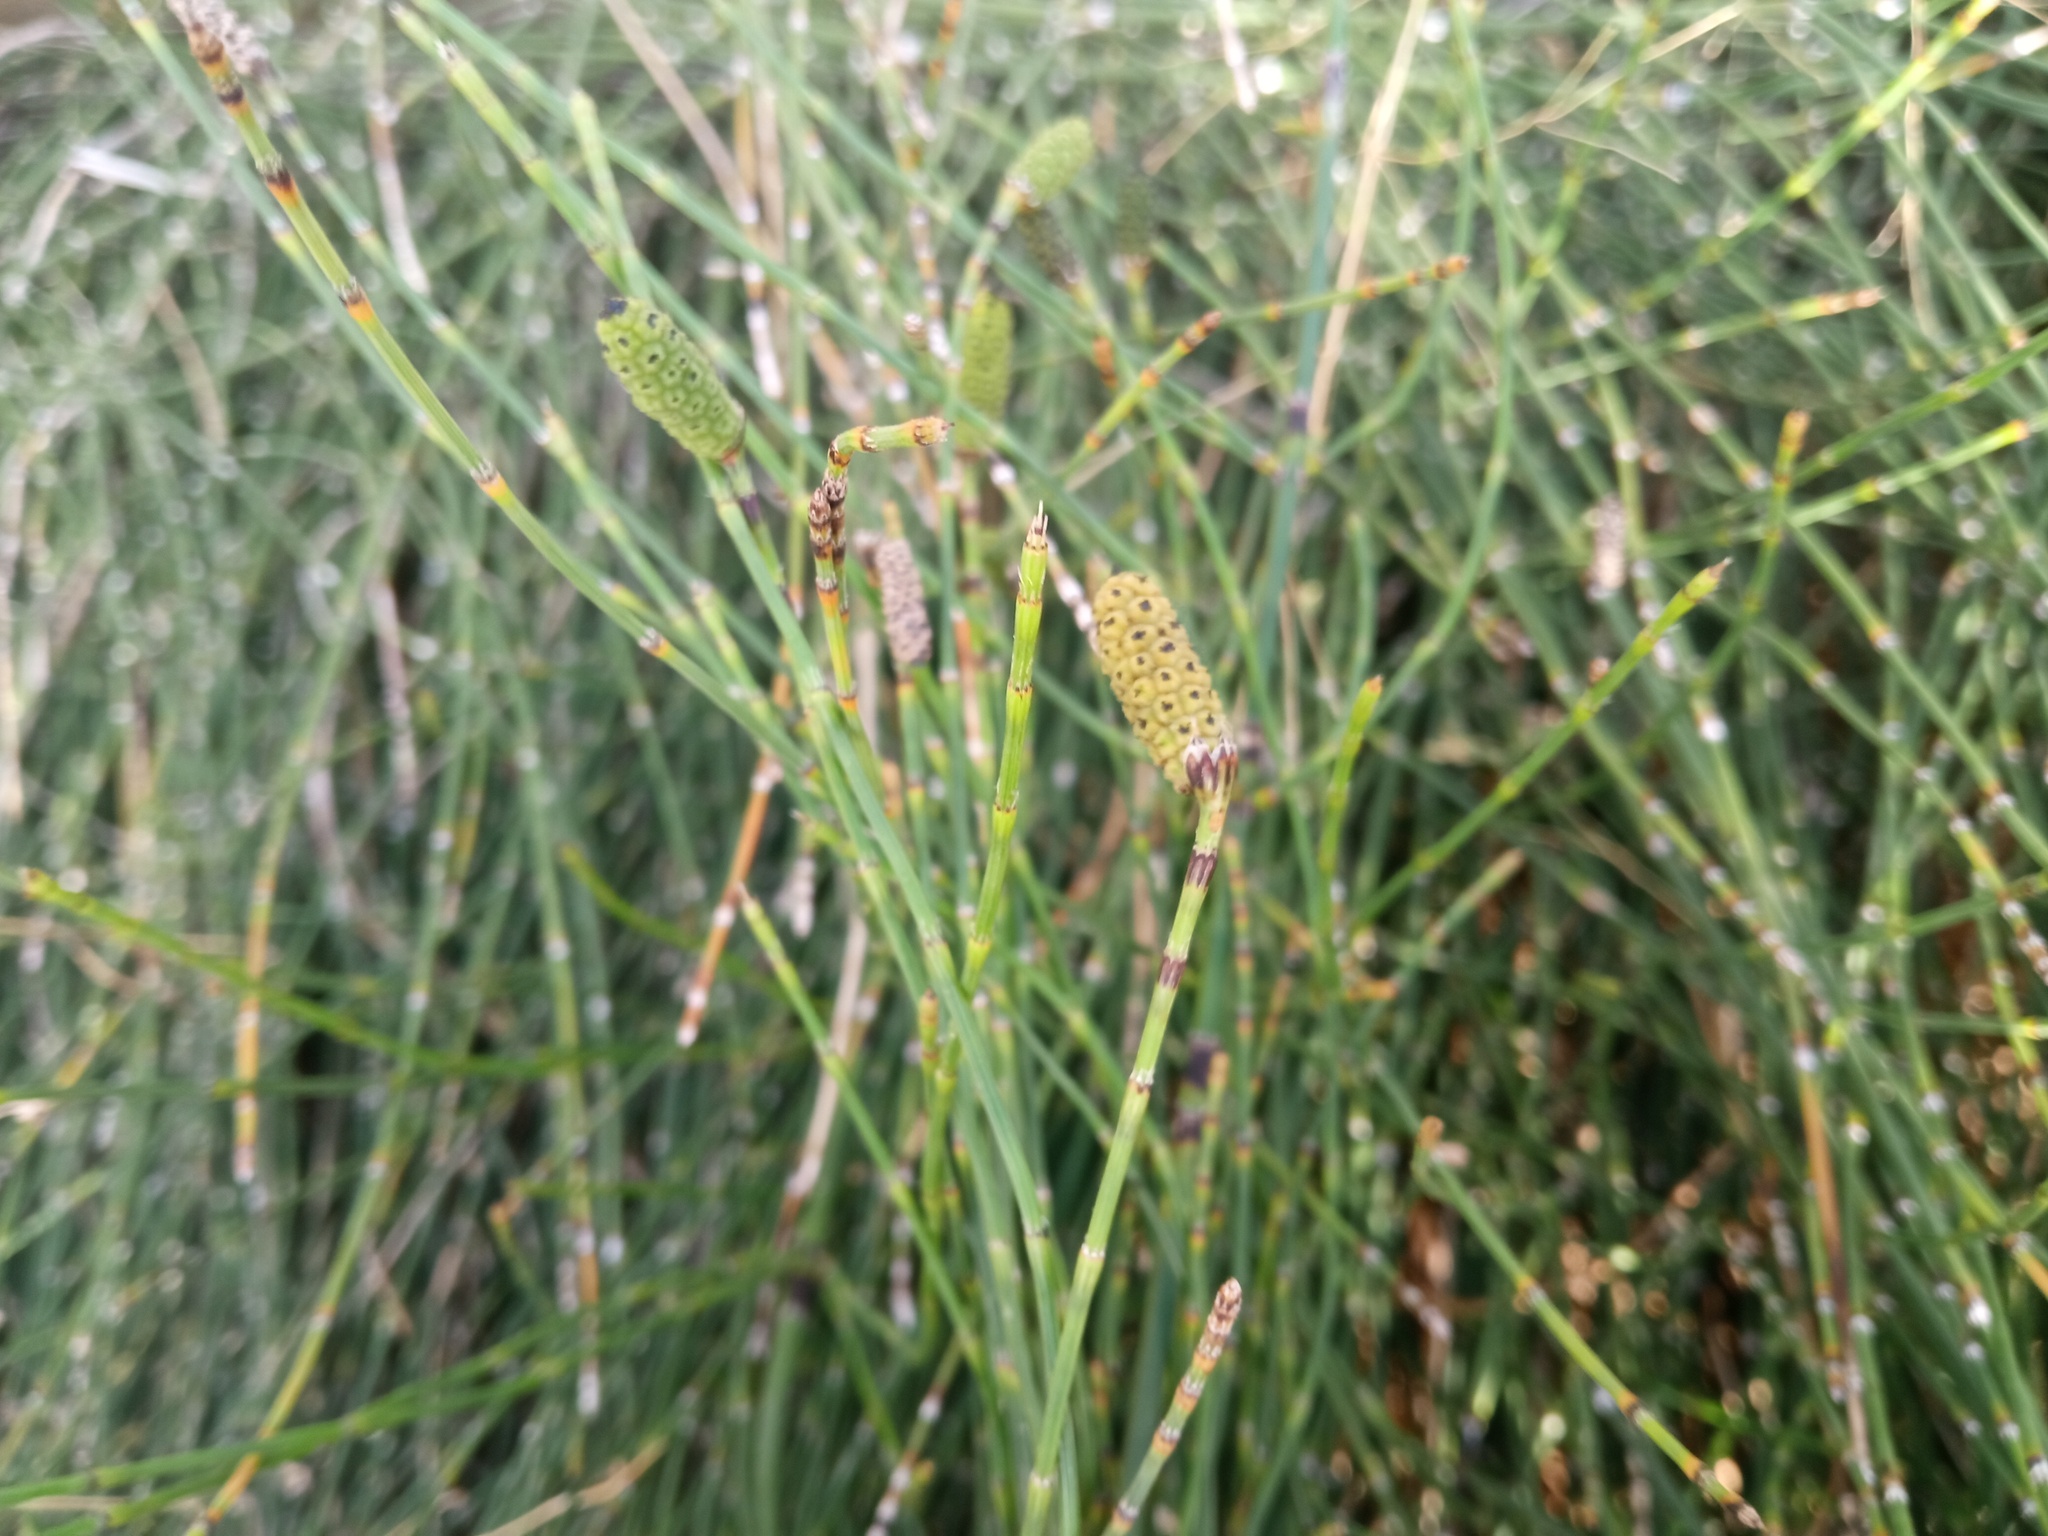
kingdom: Plantae
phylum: Tracheophyta
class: Polypodiopsida
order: Equisetales
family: Equisetaceae
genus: Equisetum
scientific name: Equisetum ramosissimum
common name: Branched horsetail
